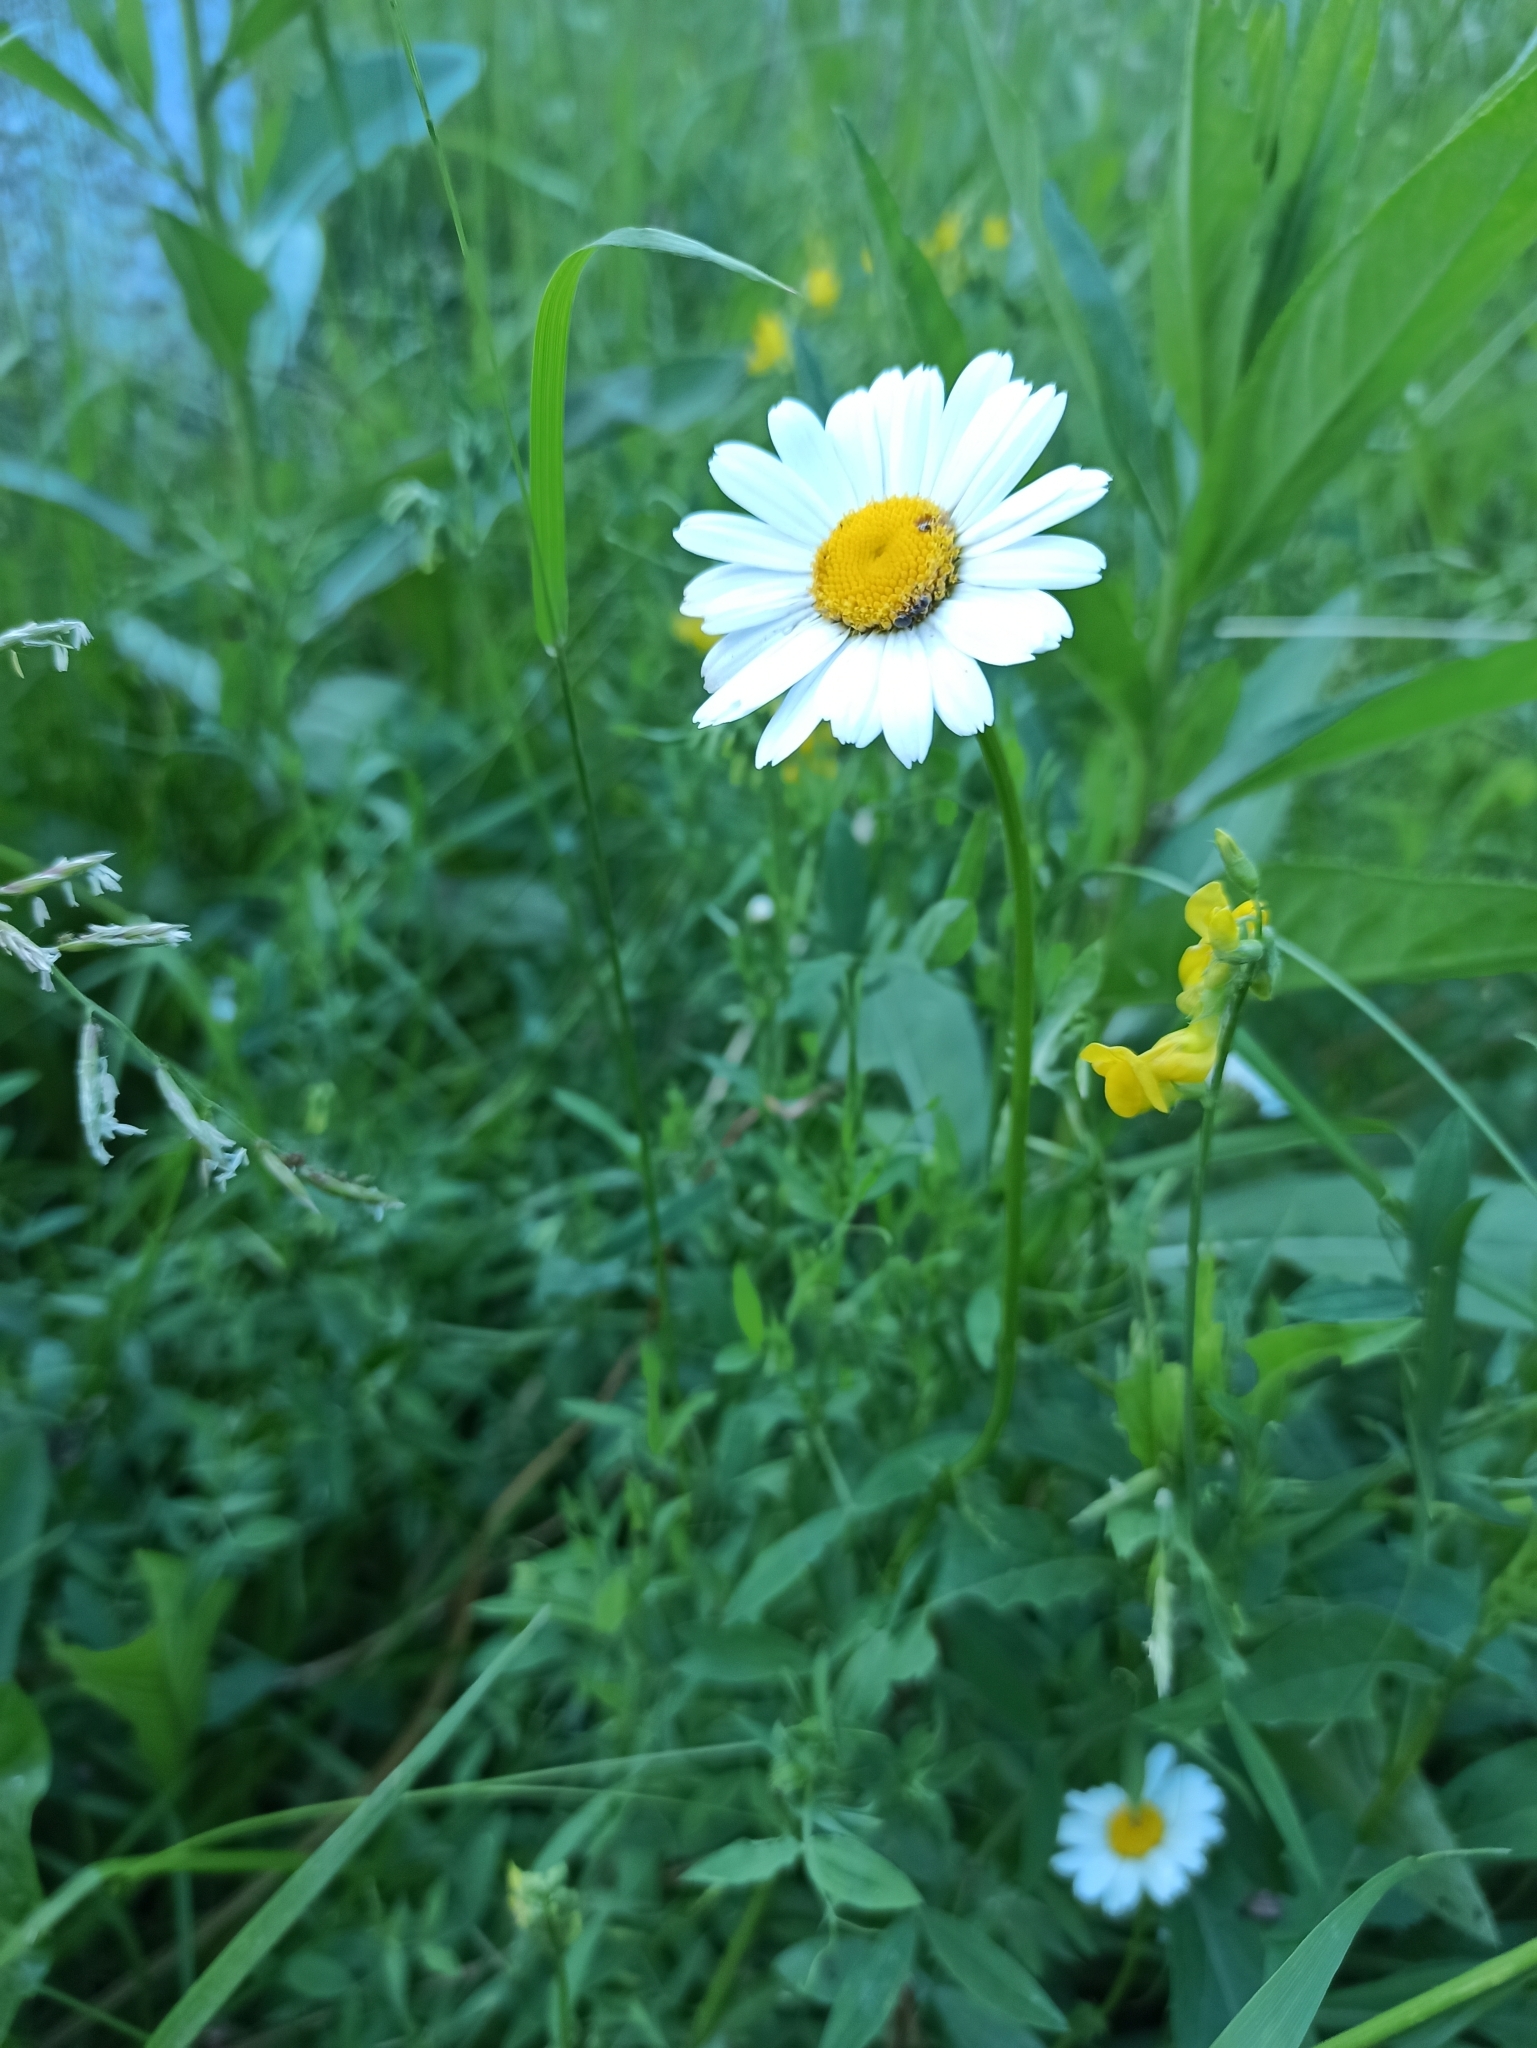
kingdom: Plantae
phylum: Tracheophyta
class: Magnoliopsida
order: Asterales
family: Asteraceae
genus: Leucanthemum
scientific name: Leucanthemum vulgare
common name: Oxeye daisy
